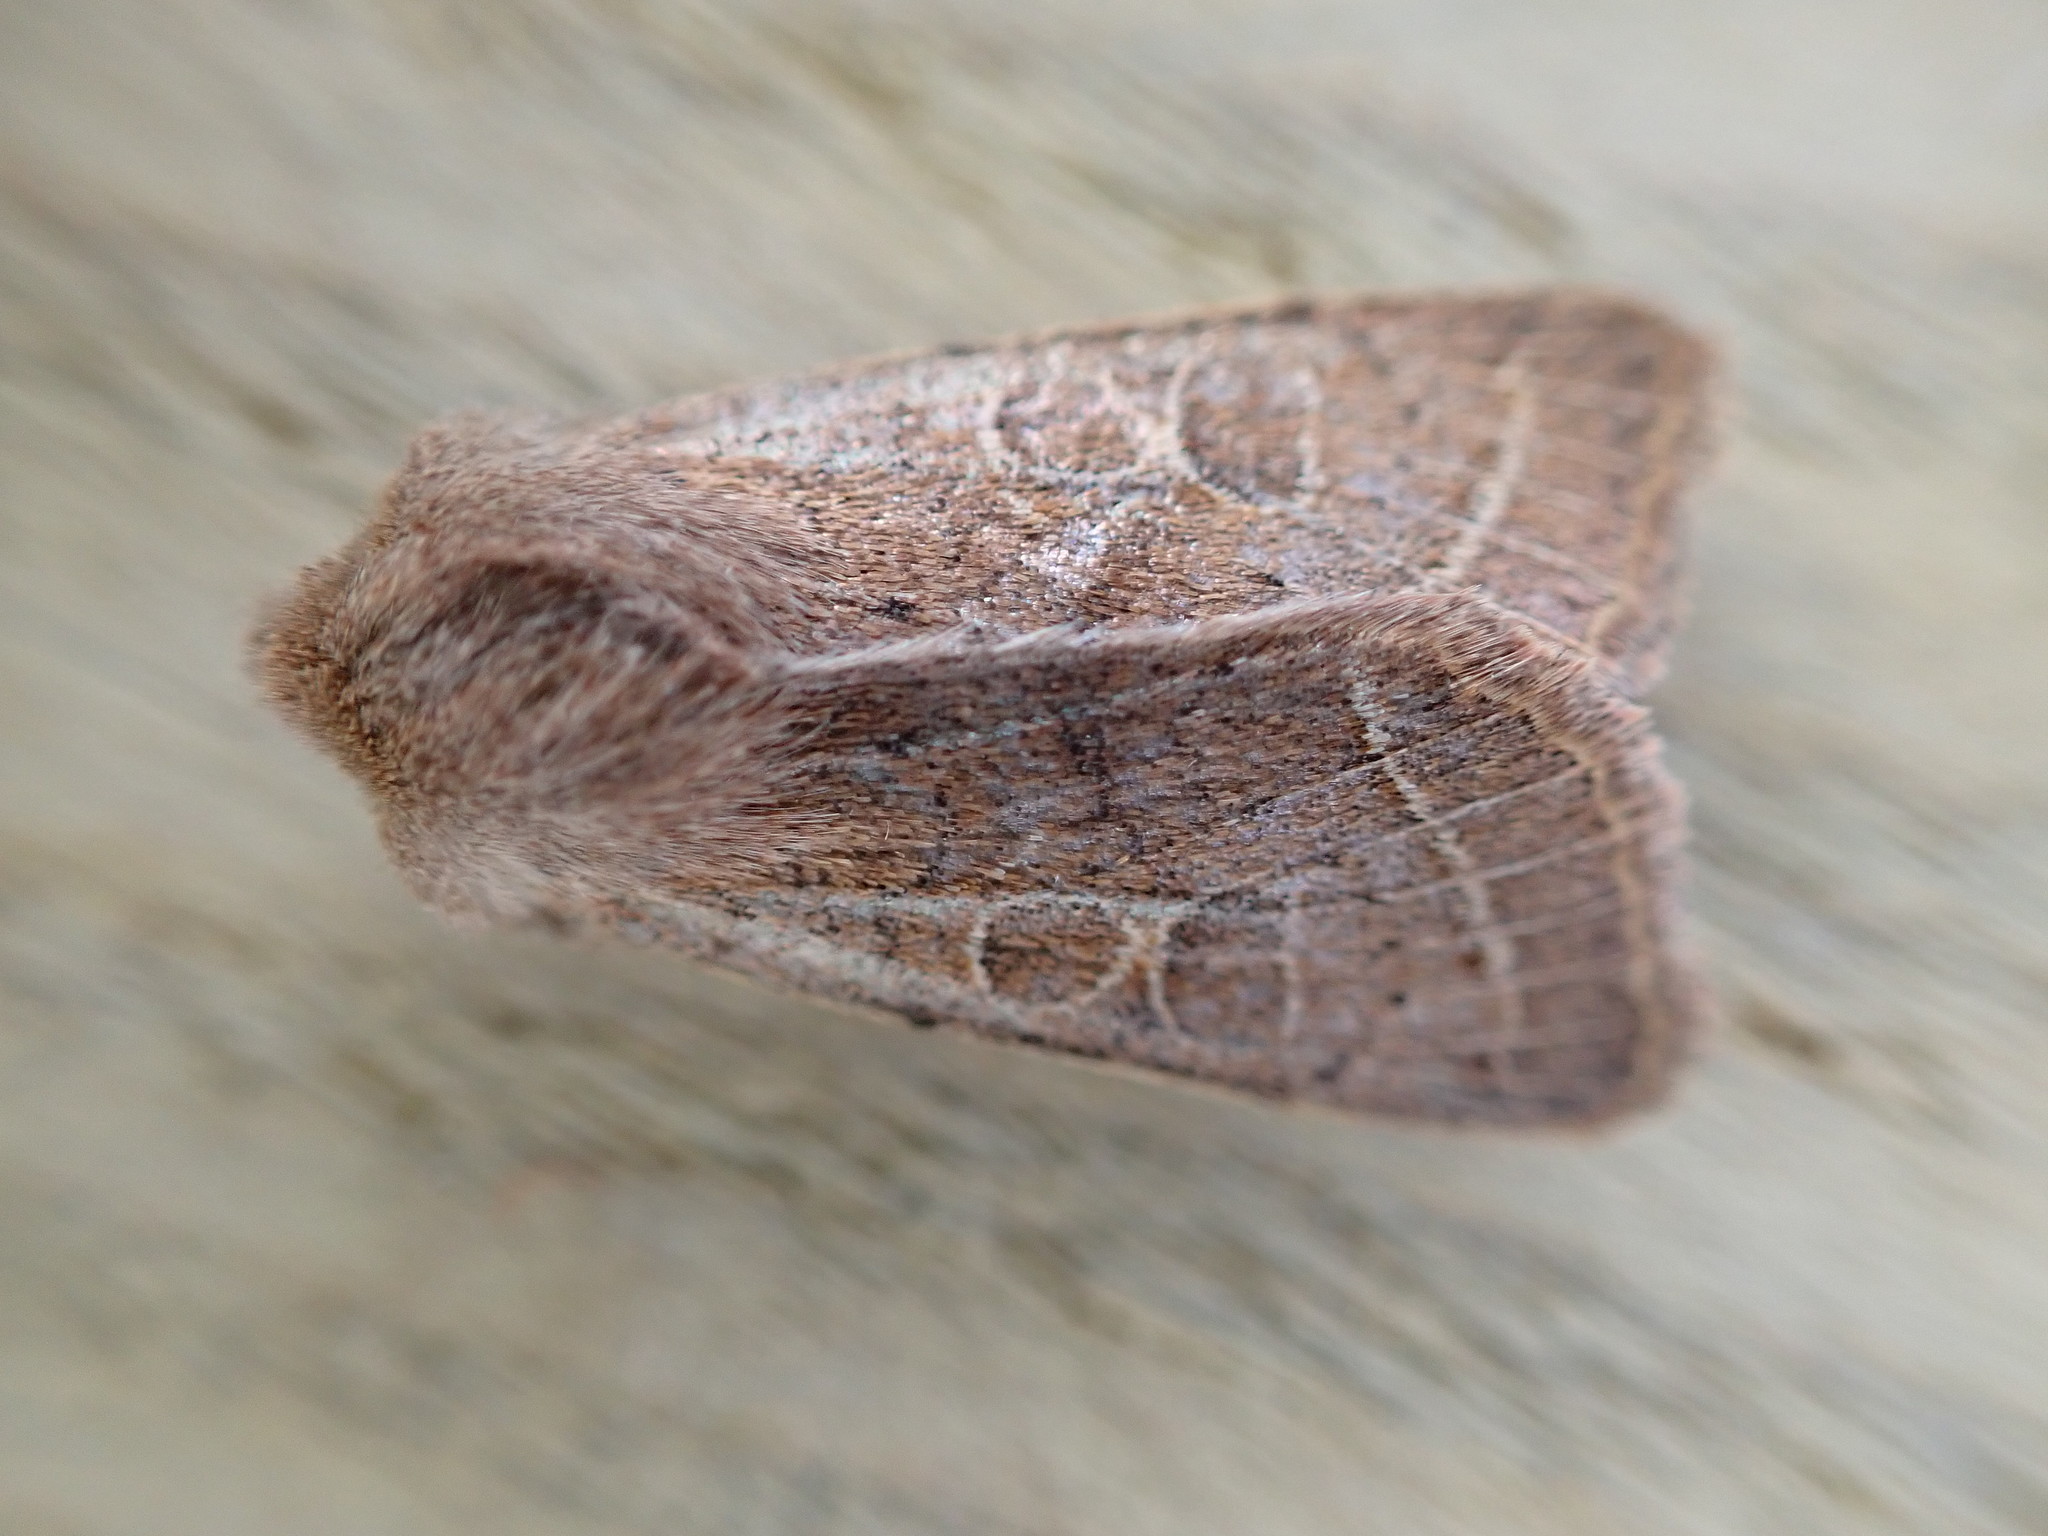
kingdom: Animalia
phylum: Arthropoda
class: Insecta
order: Lepidoptera
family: Noctuidae
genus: Orthosia
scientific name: Orthosia cerasi
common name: Common quaker
